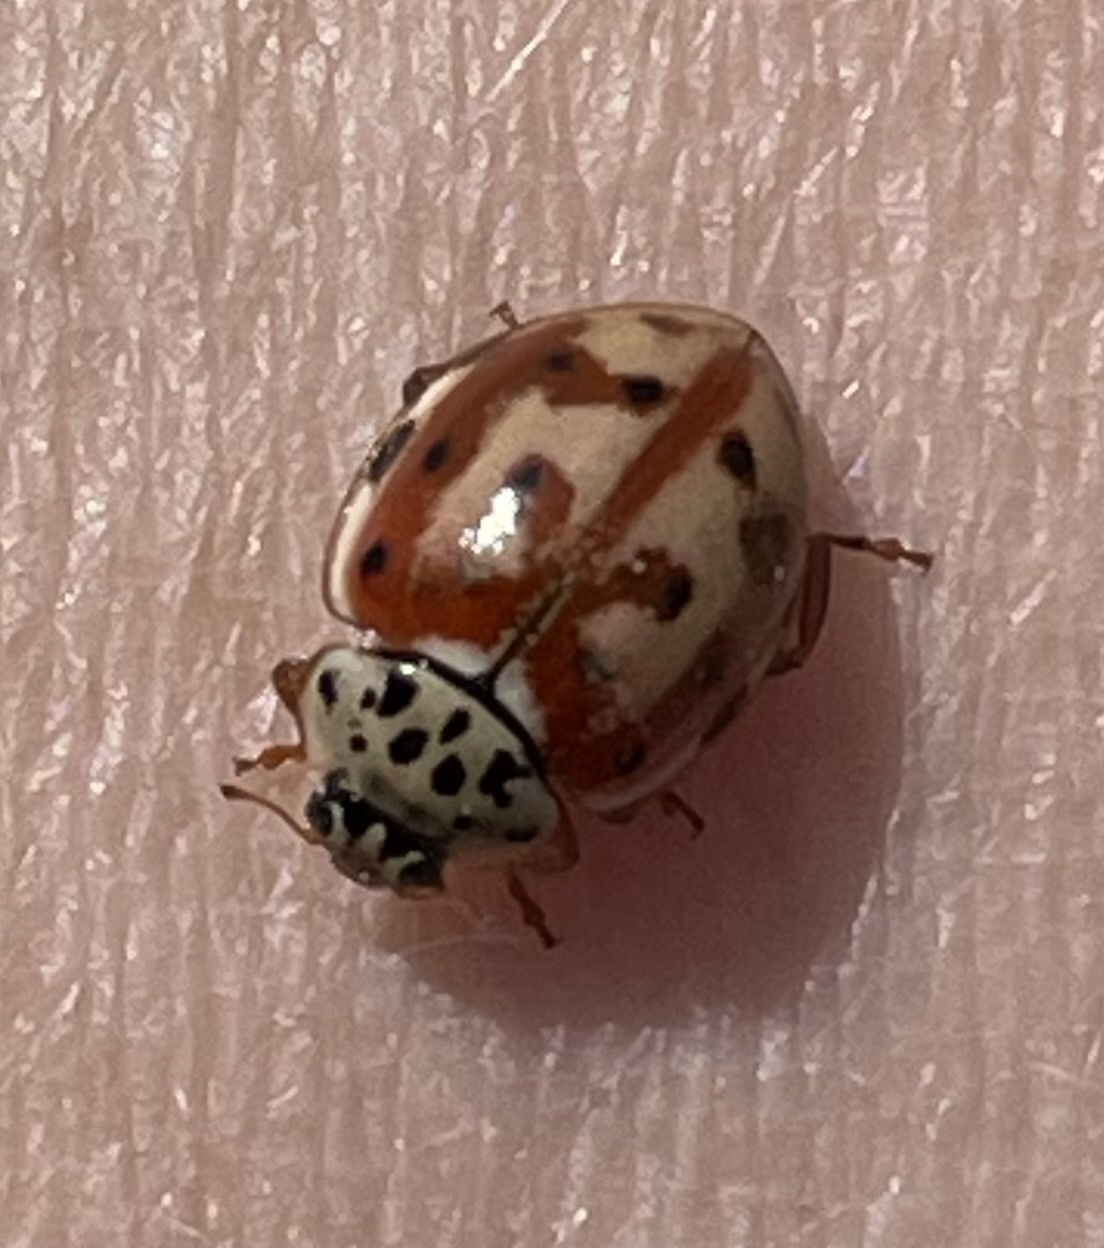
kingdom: Animalia
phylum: Arthropoda
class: Insecta
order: Coleoptera
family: Coccinellidae
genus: Harmonia
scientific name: Harmonia quadripunctata
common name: Cream-streaked ladybird
